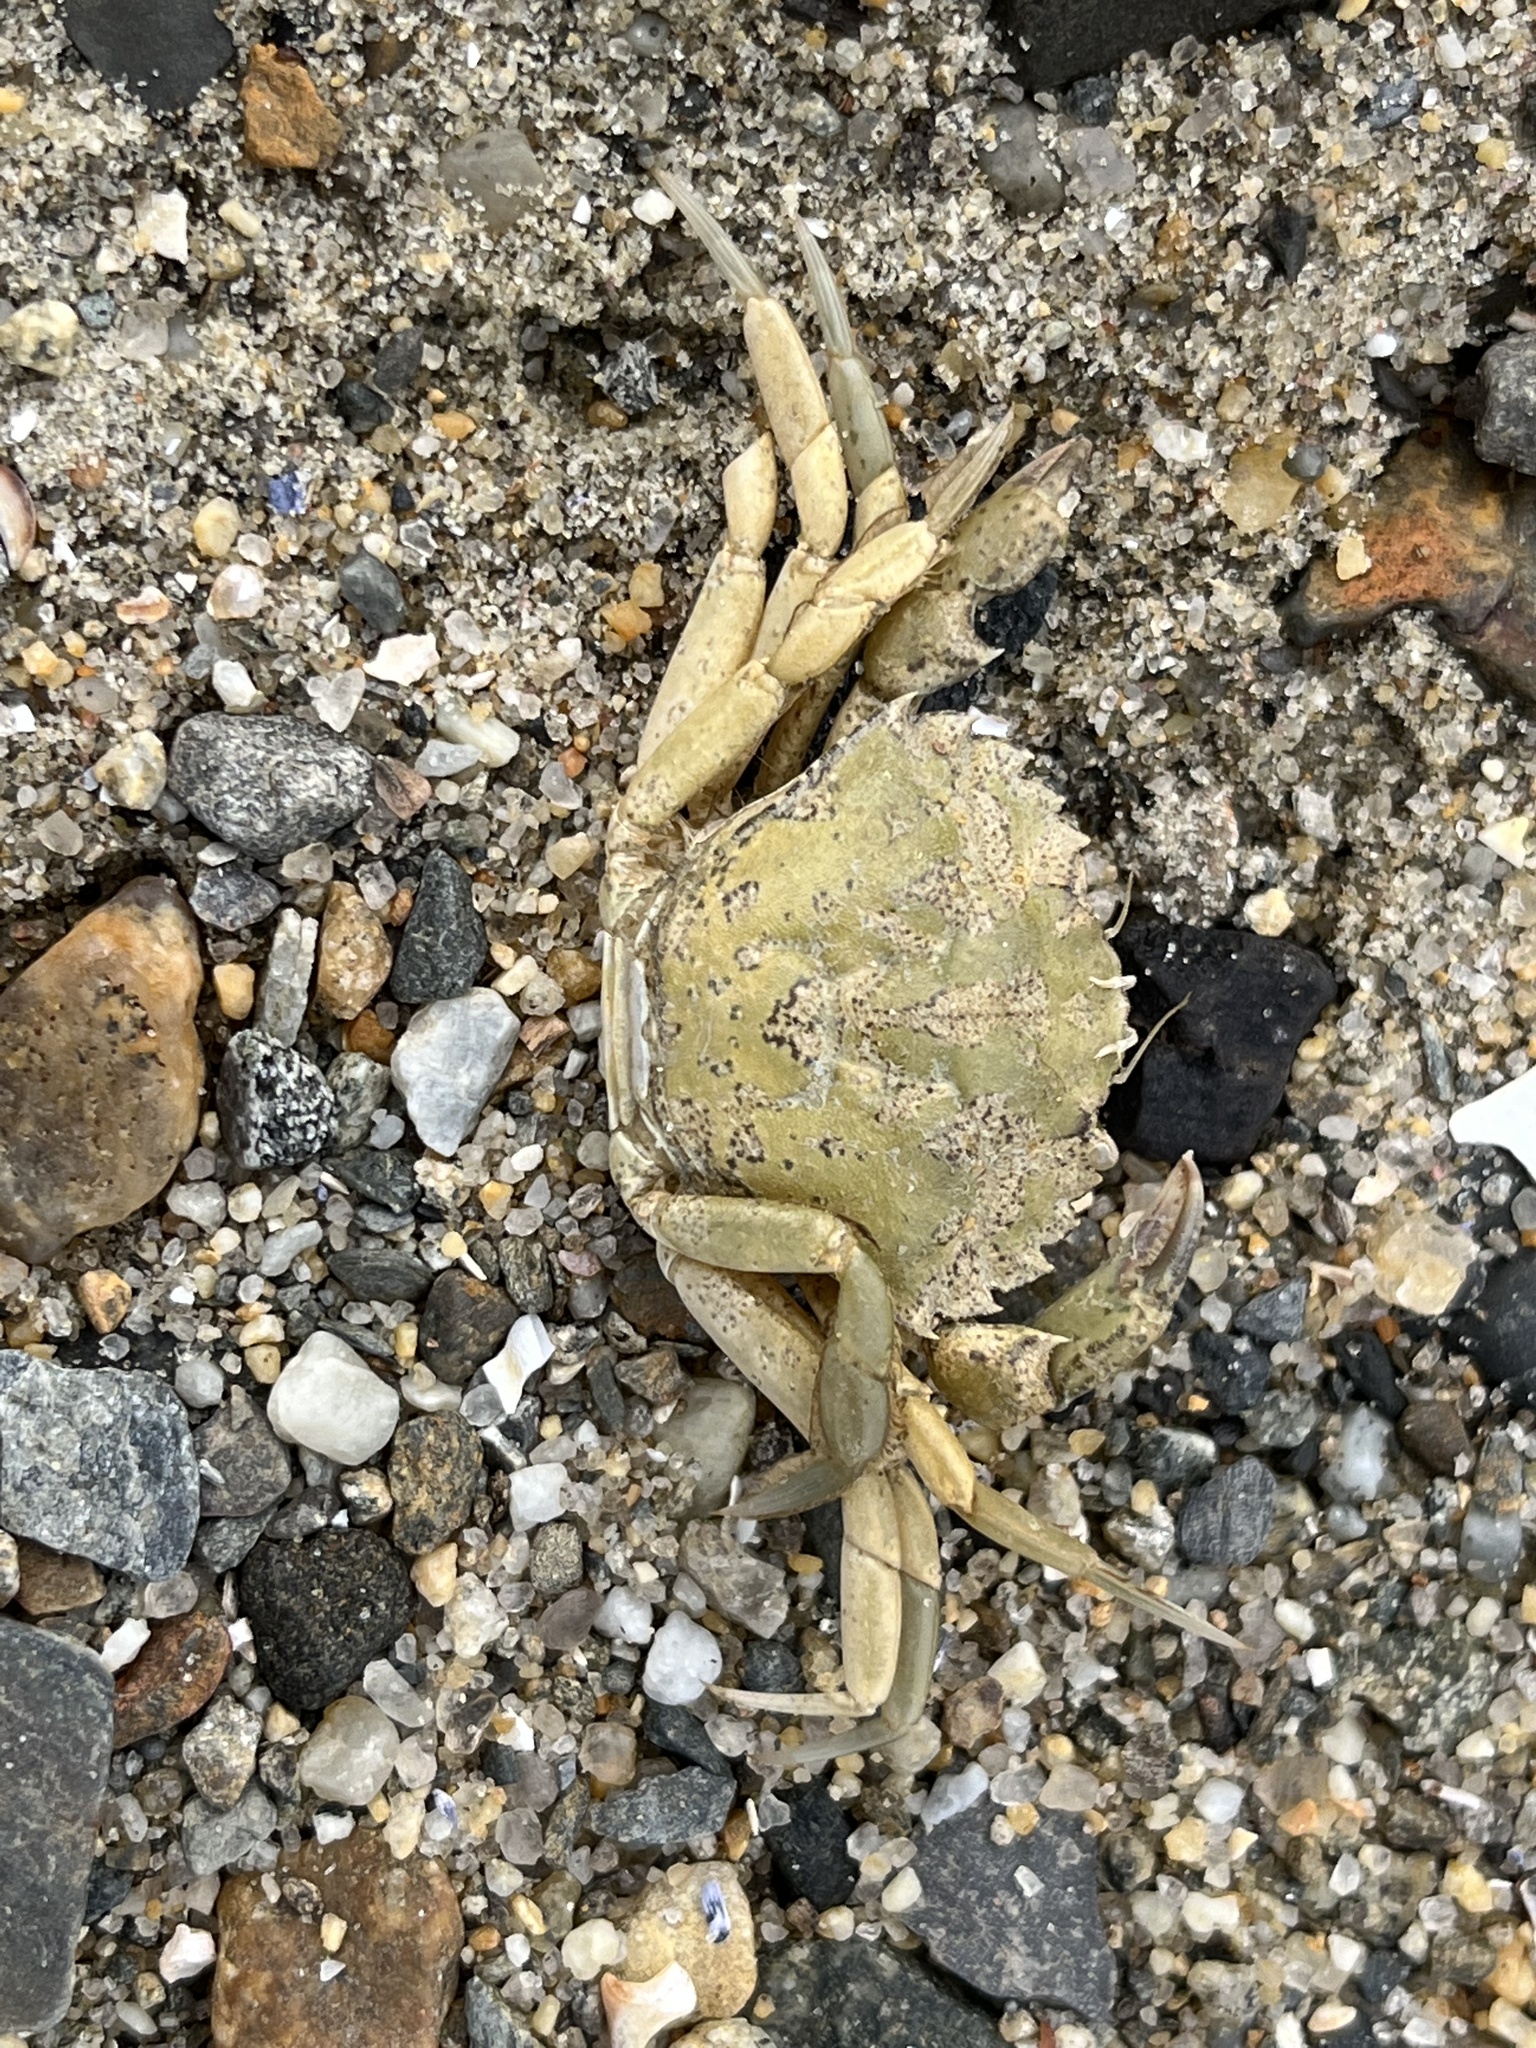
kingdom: Animalia
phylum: Arthropoda
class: Malacostraca
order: Decapoda
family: Carcinidae
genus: Carcinus
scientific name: Carcinus maenas
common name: European green crab
